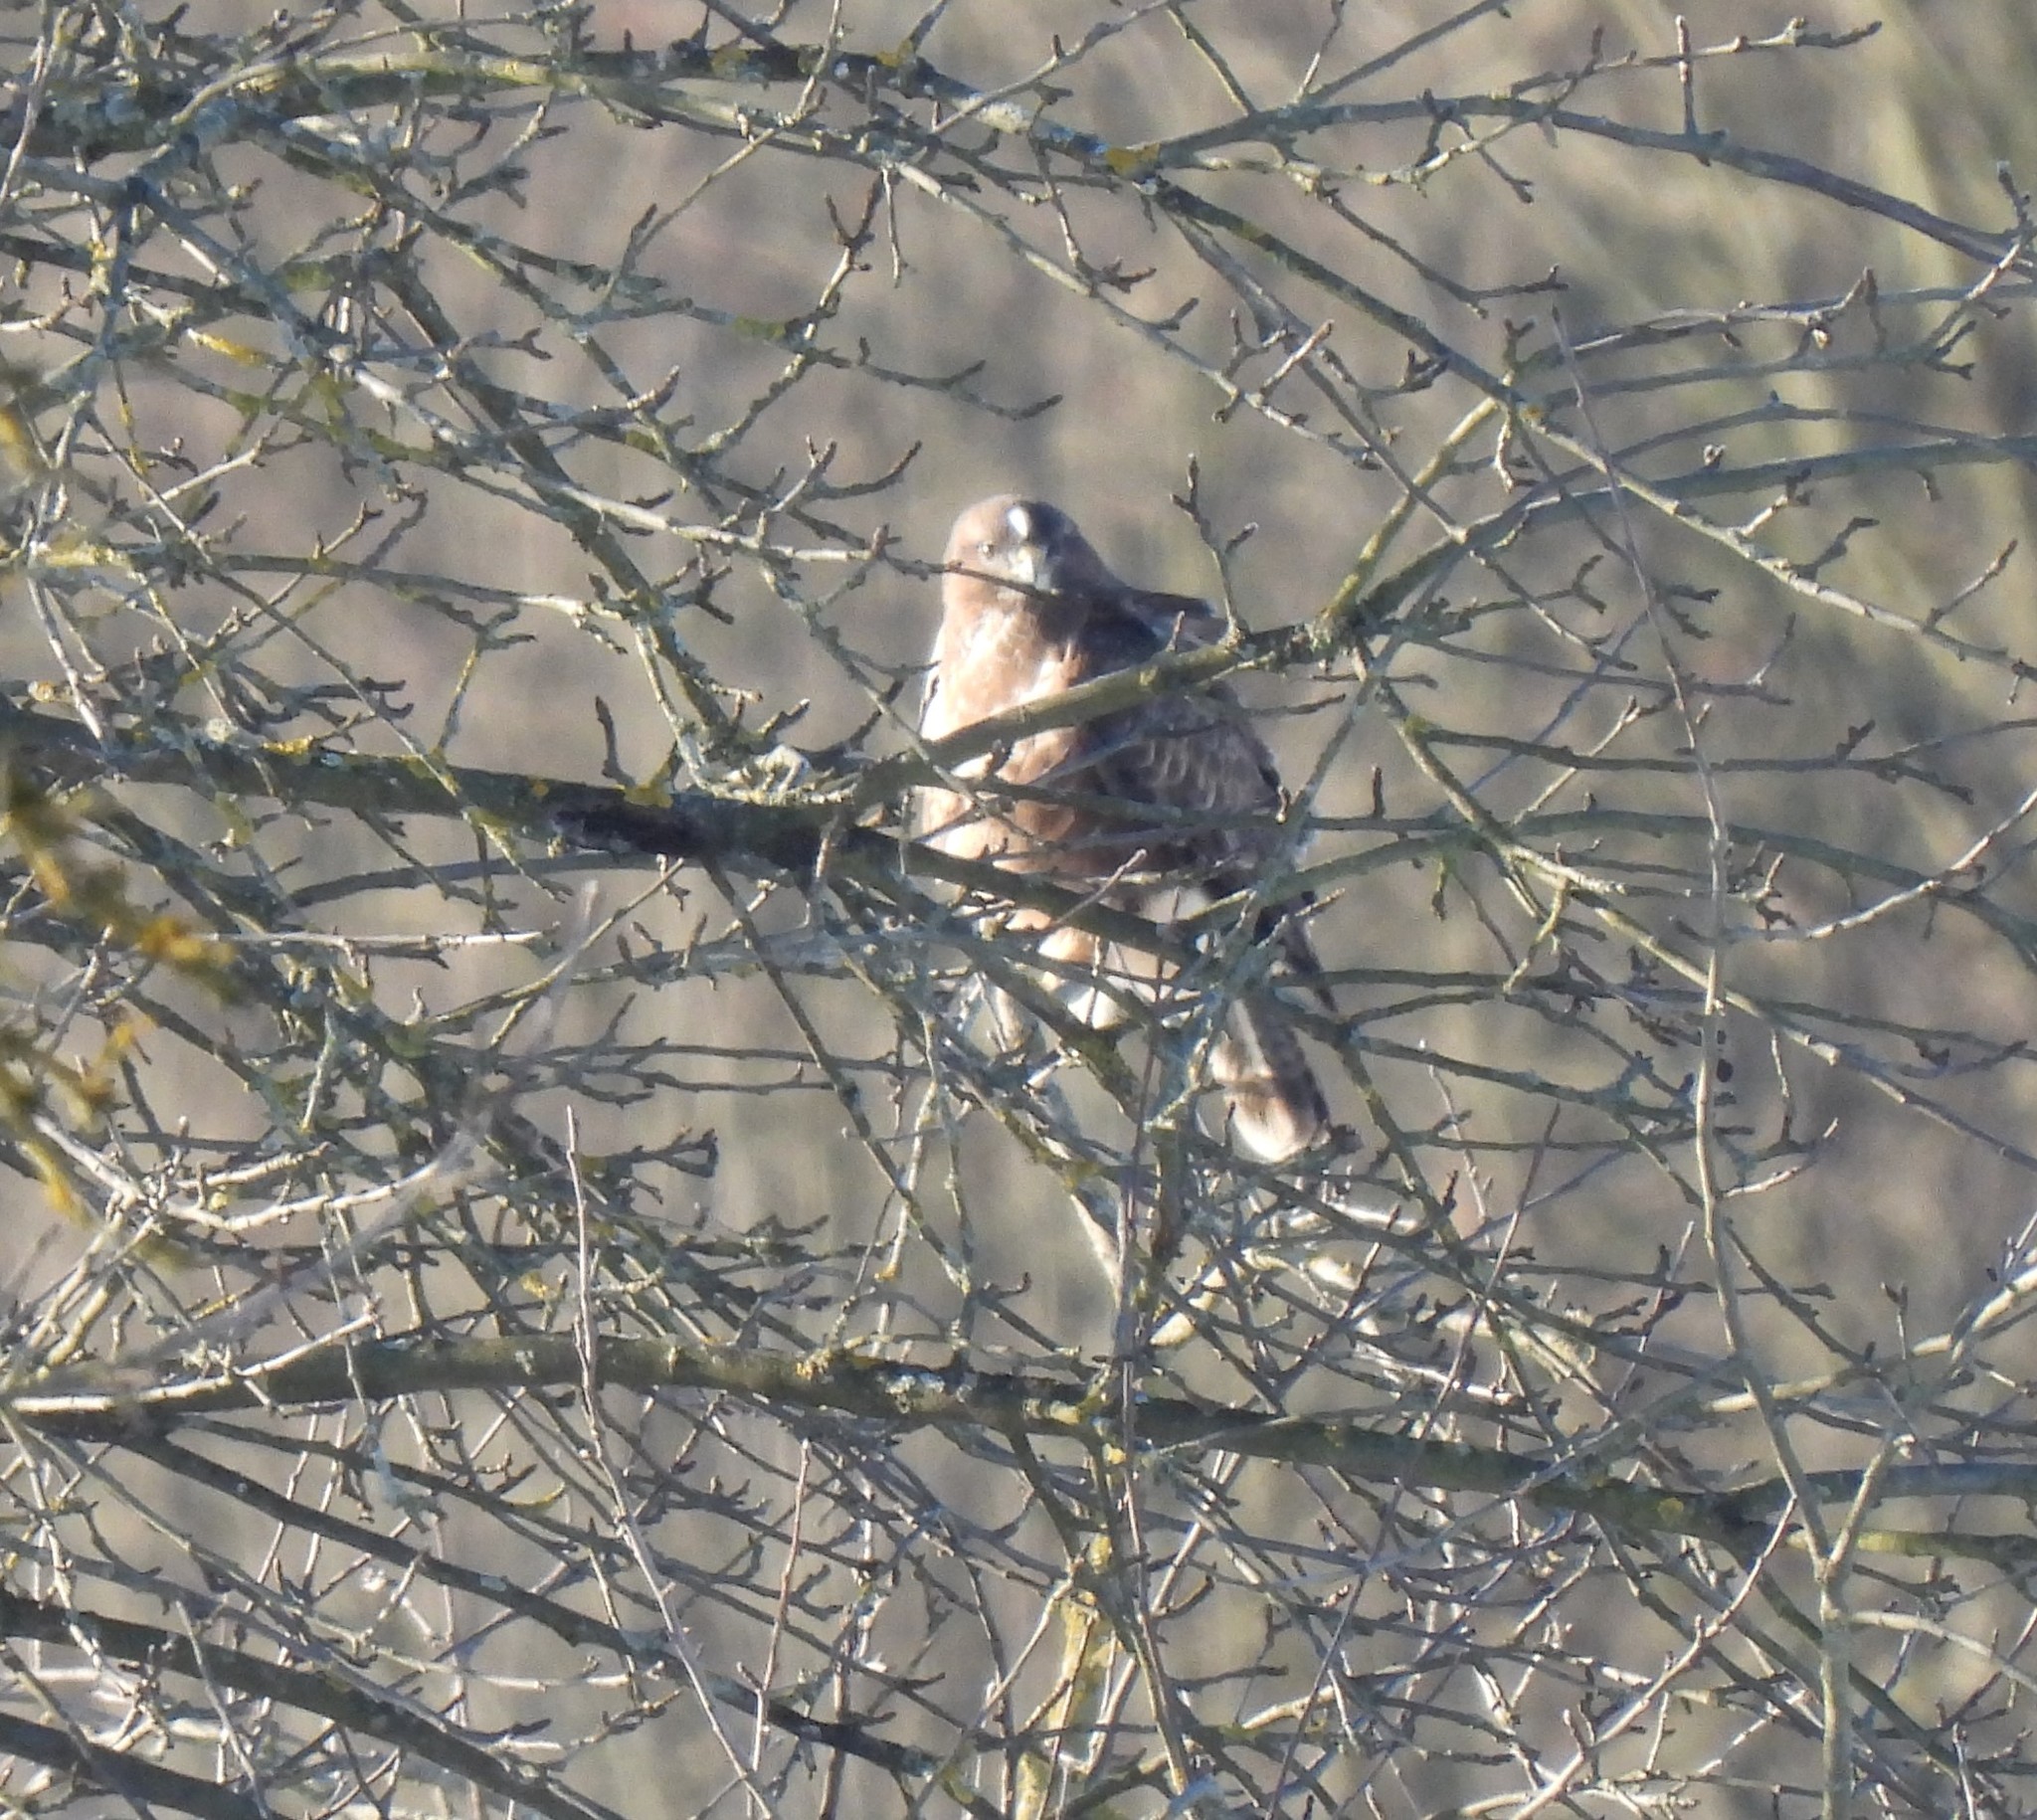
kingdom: Animalia
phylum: Chordata
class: Aves
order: Accipitriformes
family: Accipitridae
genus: Buteo
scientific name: Buteo buteo
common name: Common buzzard
